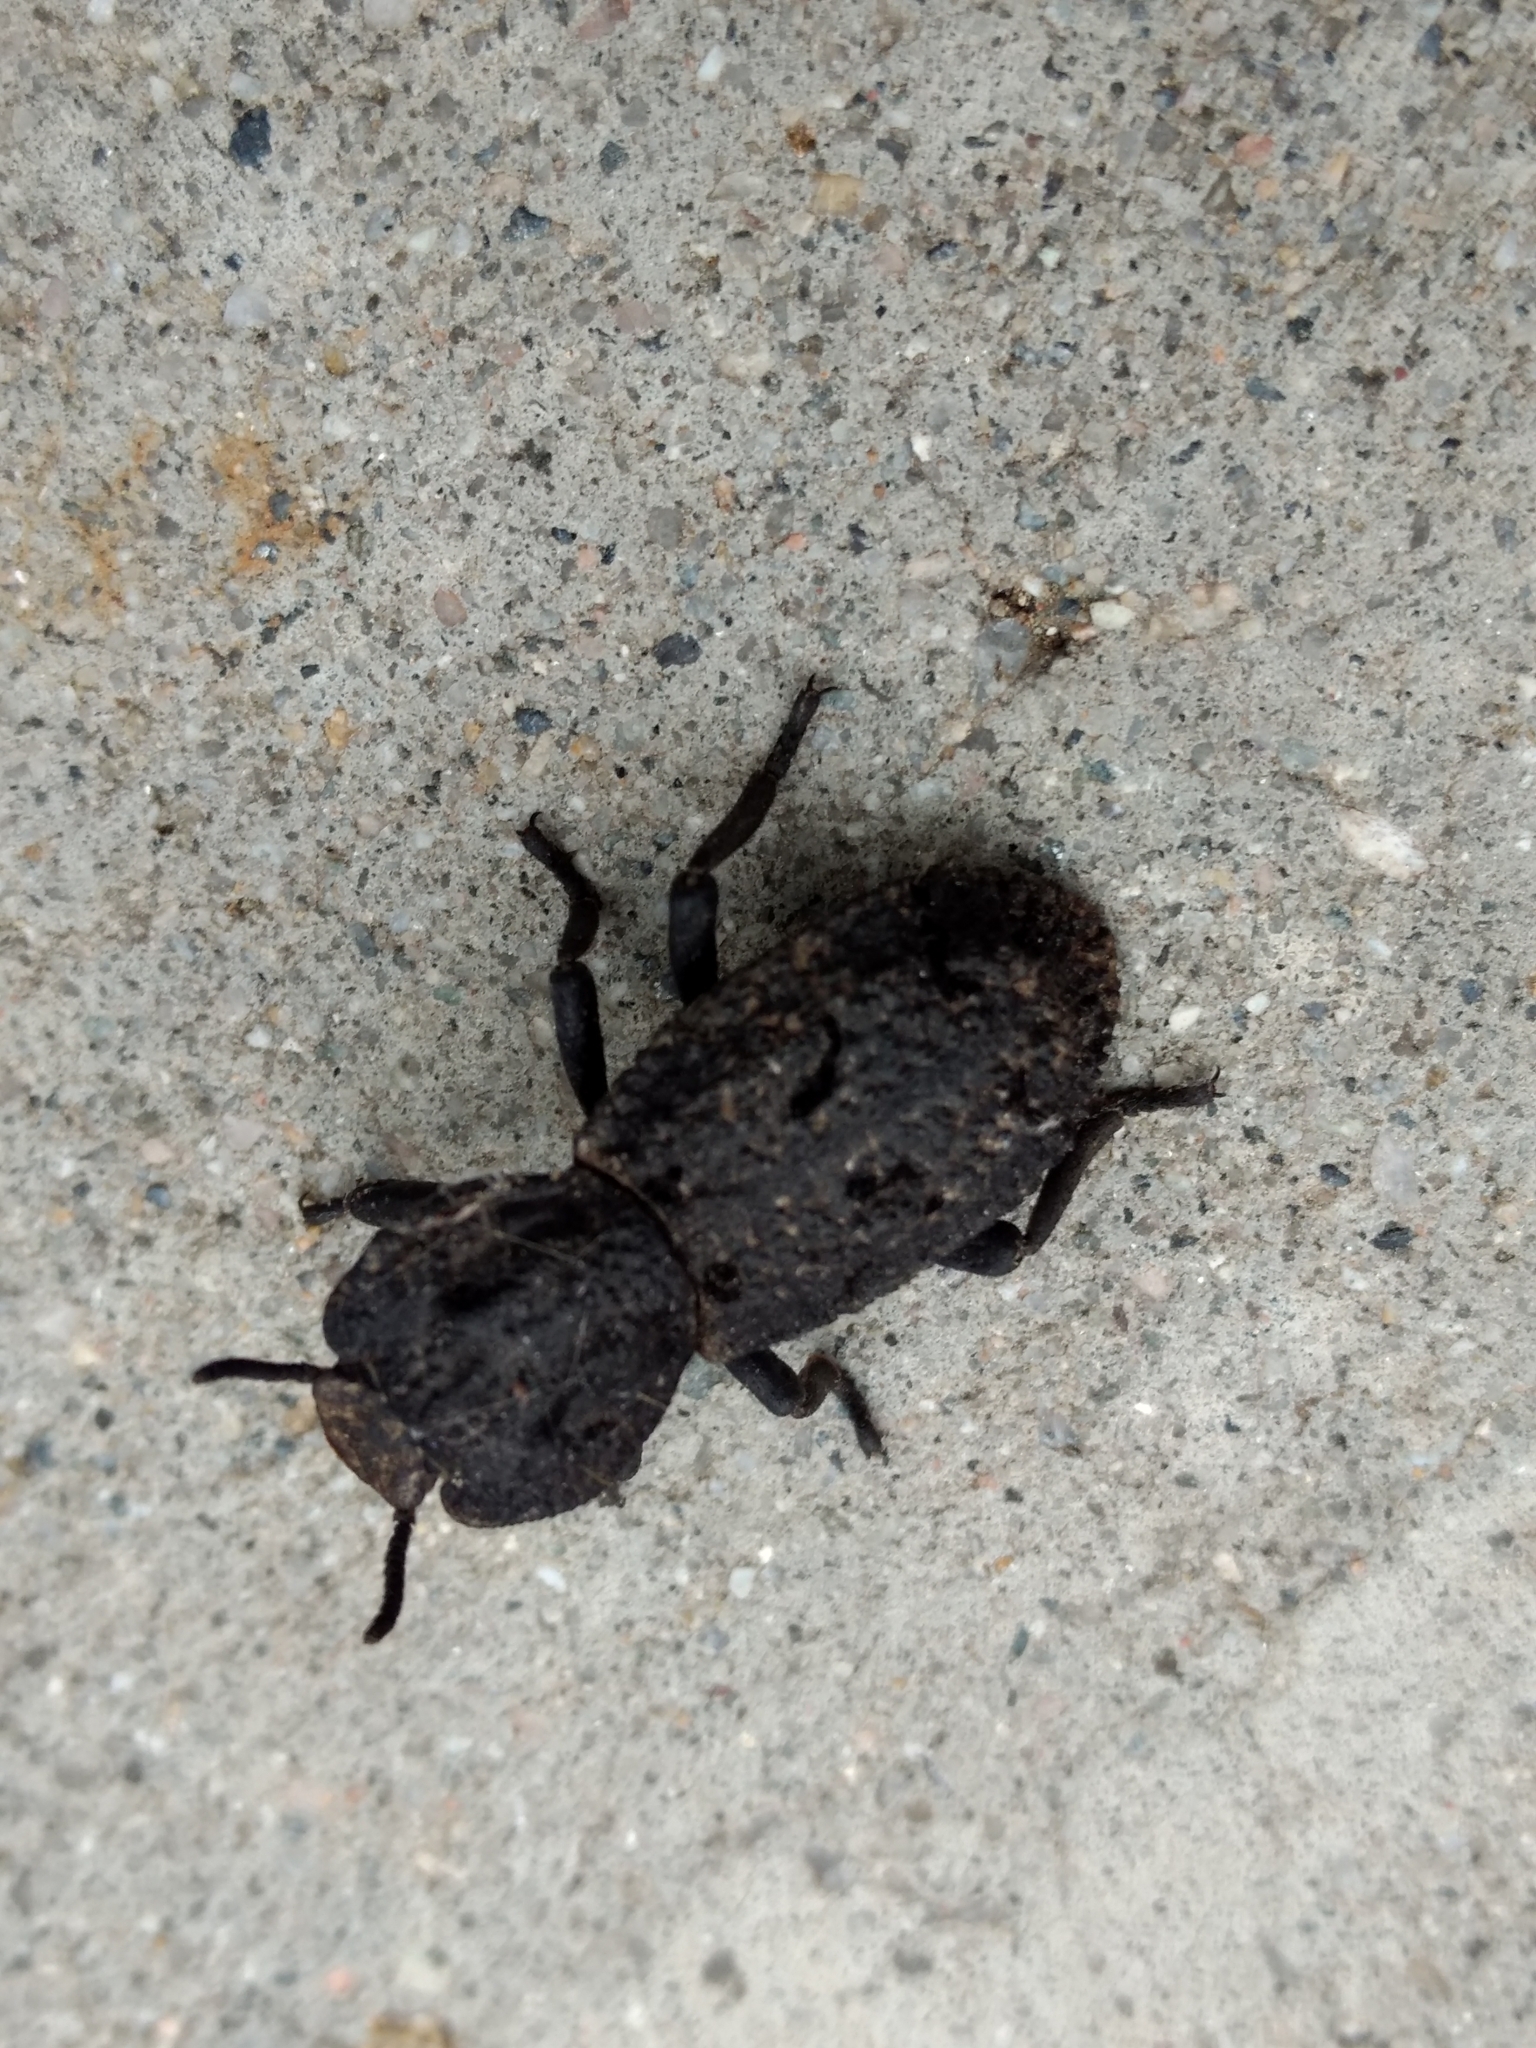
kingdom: Animalia
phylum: Arthropoda
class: Insecta
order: Coleoptera
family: Zopheridae
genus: Phloeodes
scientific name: Phloeodes diabolicus
